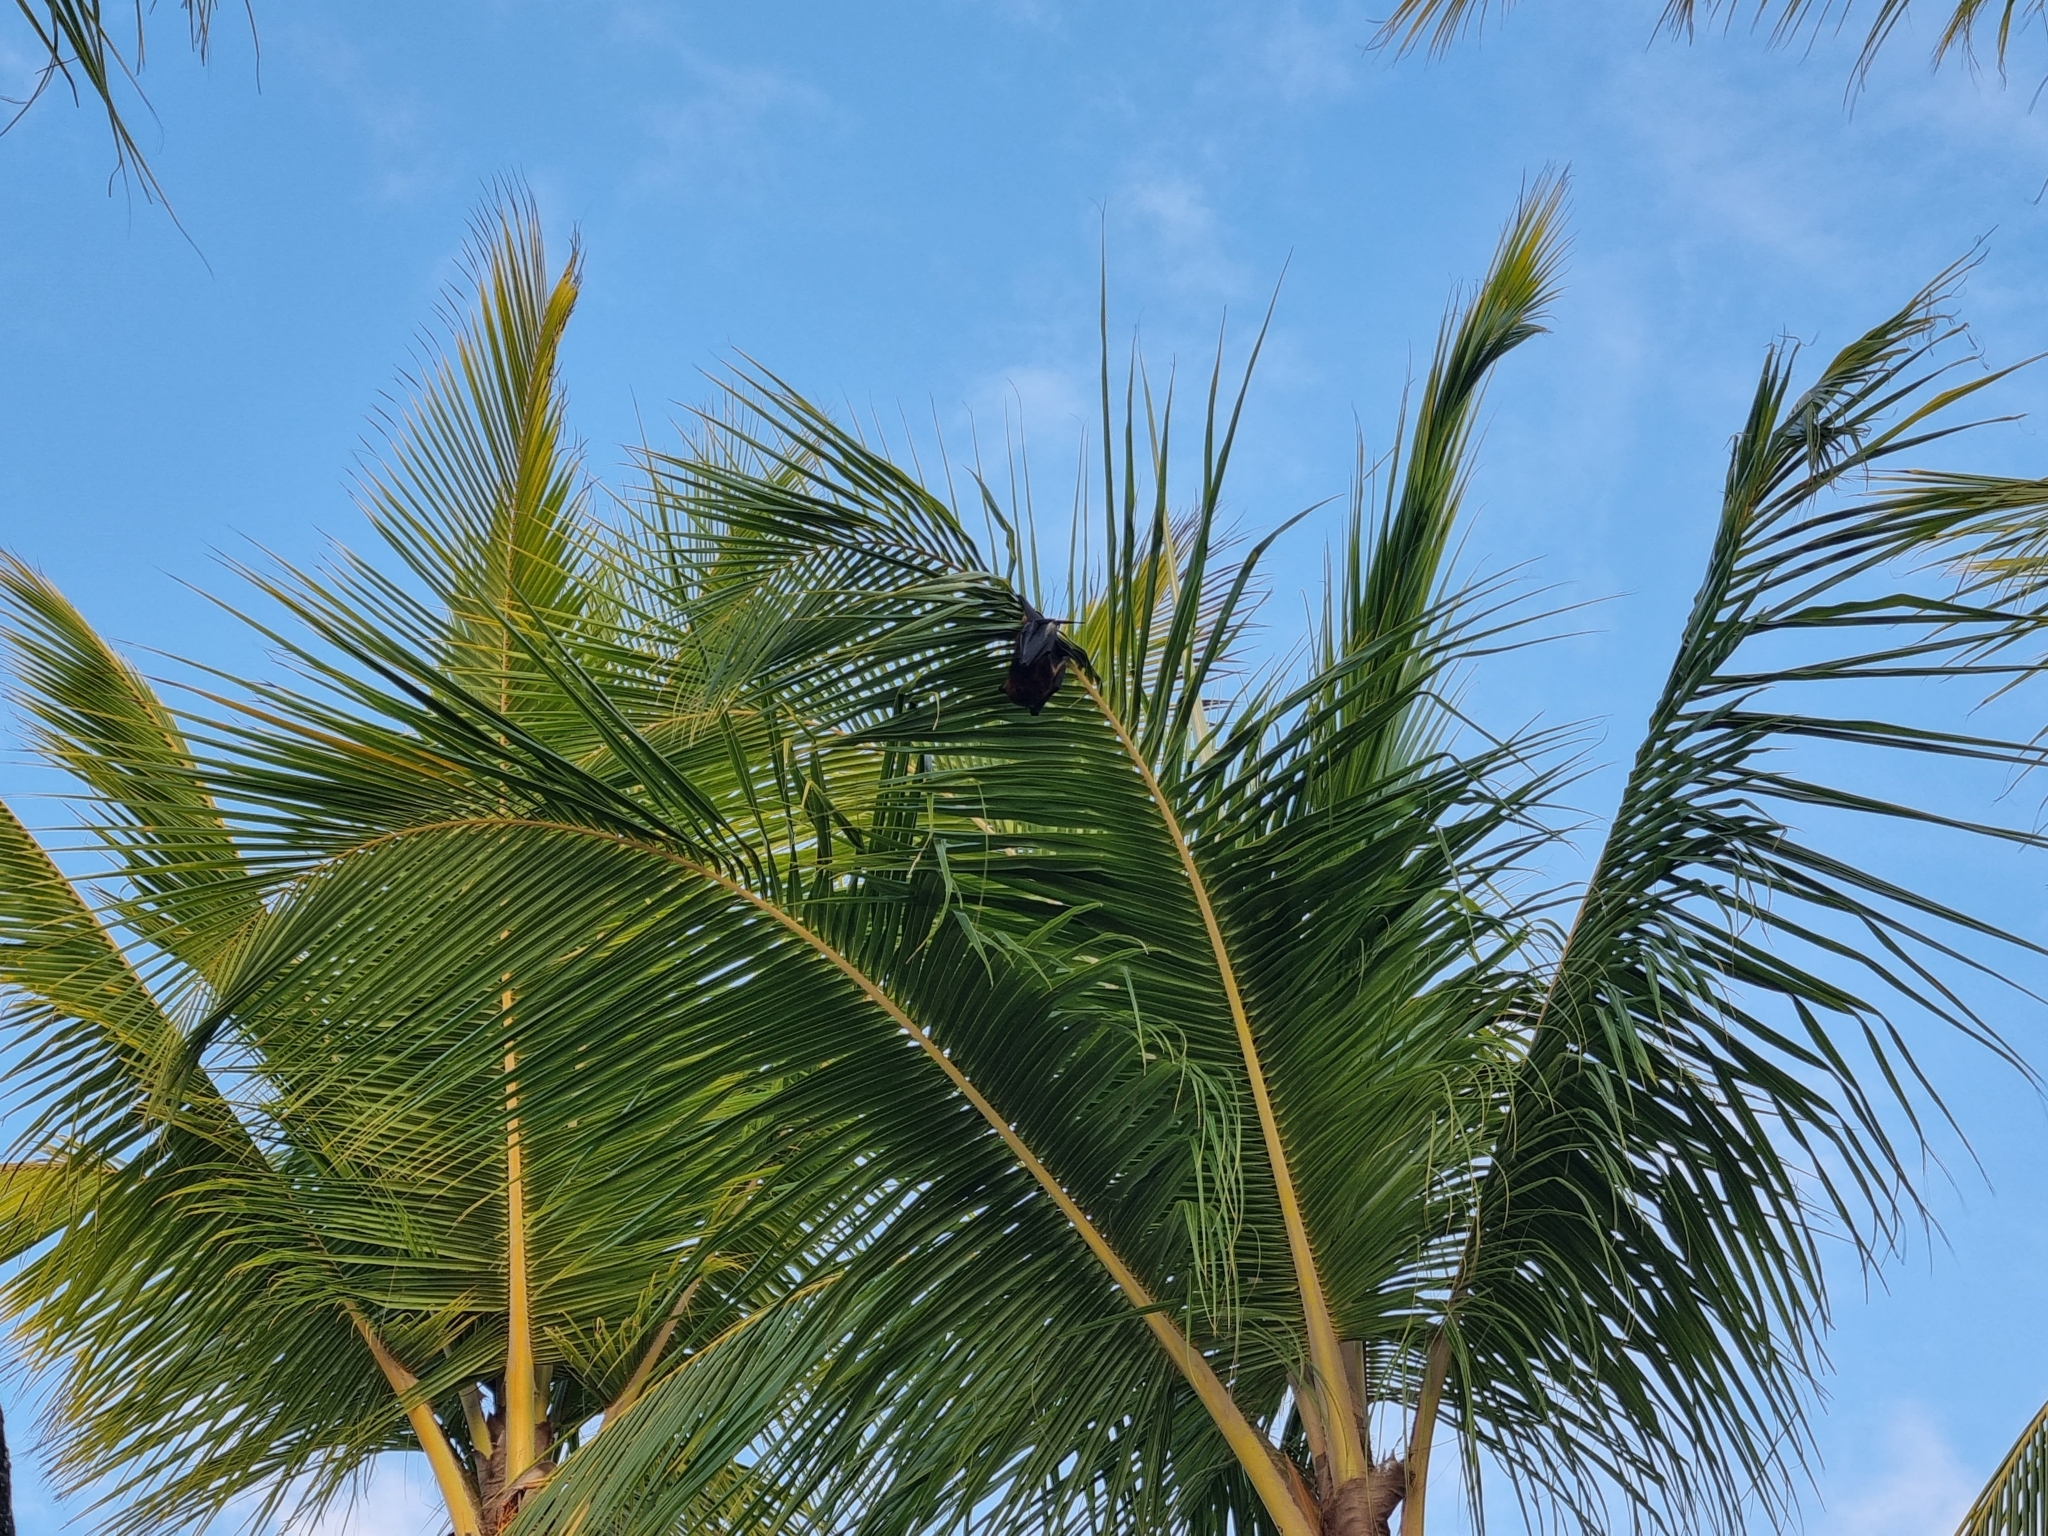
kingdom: Animalia
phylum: Chordata
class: Mammalia
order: Chiroptera
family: Pteropodidae
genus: Pteropus
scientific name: Pteropus niger
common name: Greater mascarene flying fox
